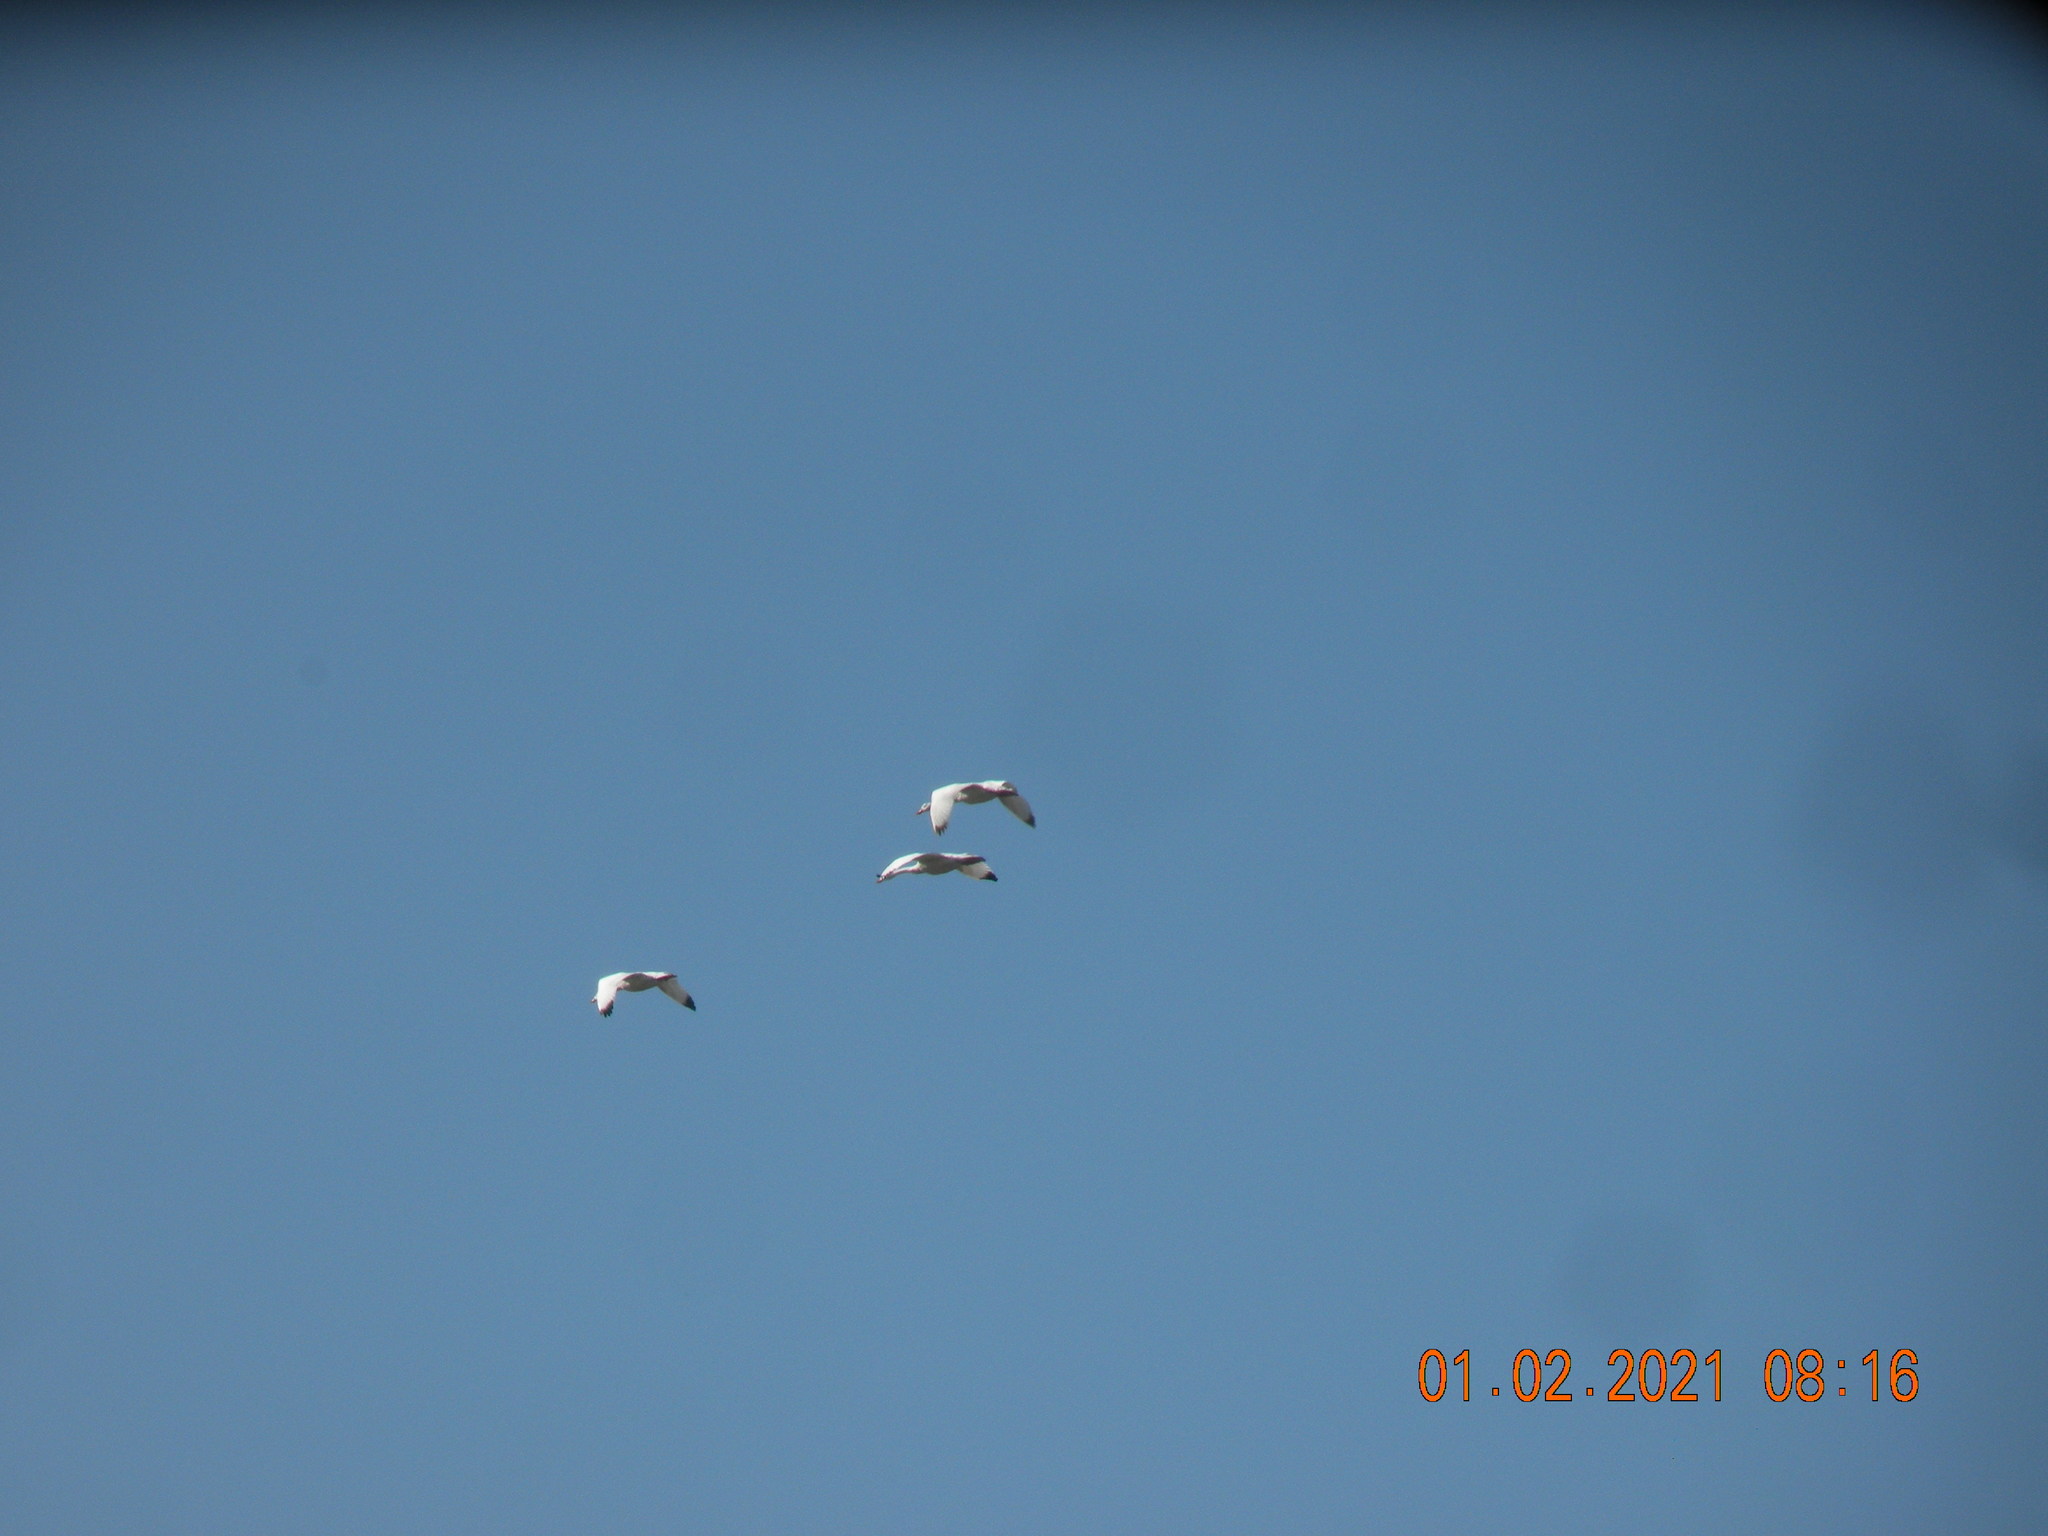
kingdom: Animalia
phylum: Chordata
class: Aves
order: Anseriformes
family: Anatidae
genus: Coscoroba
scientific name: Coscoroba coscoroba
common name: Coscoroba swan
